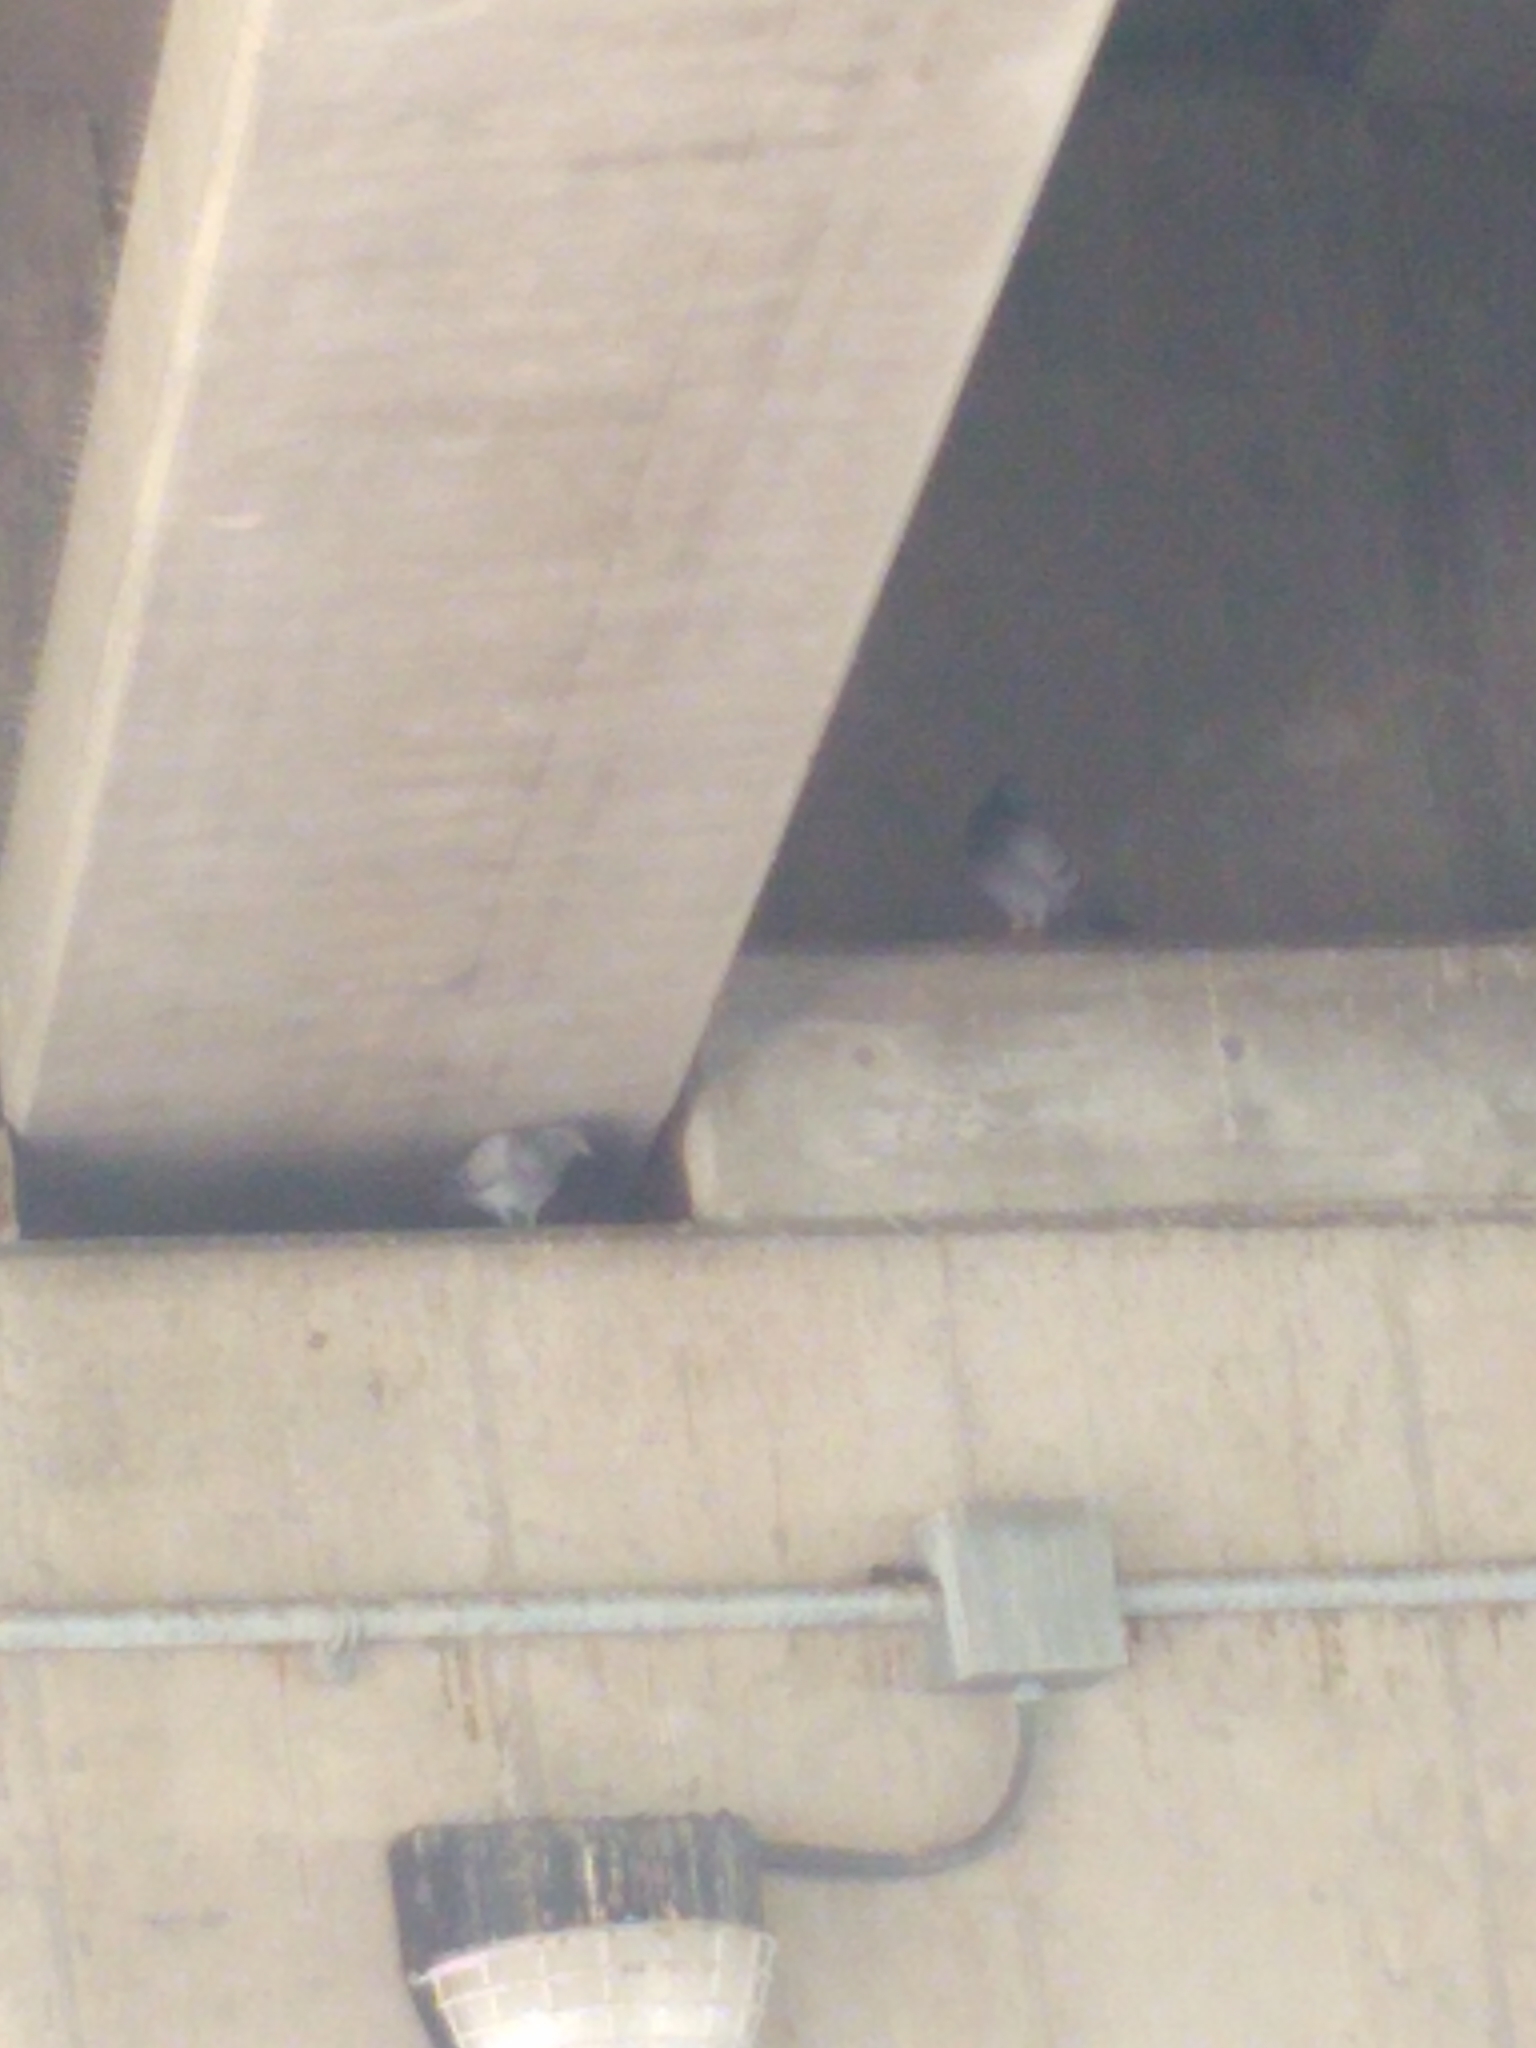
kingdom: Animalia
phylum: Chordata
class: Aves
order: Columbiformes
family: Columbidae
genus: Columba
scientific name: Columba livia
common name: Rock pigeon
